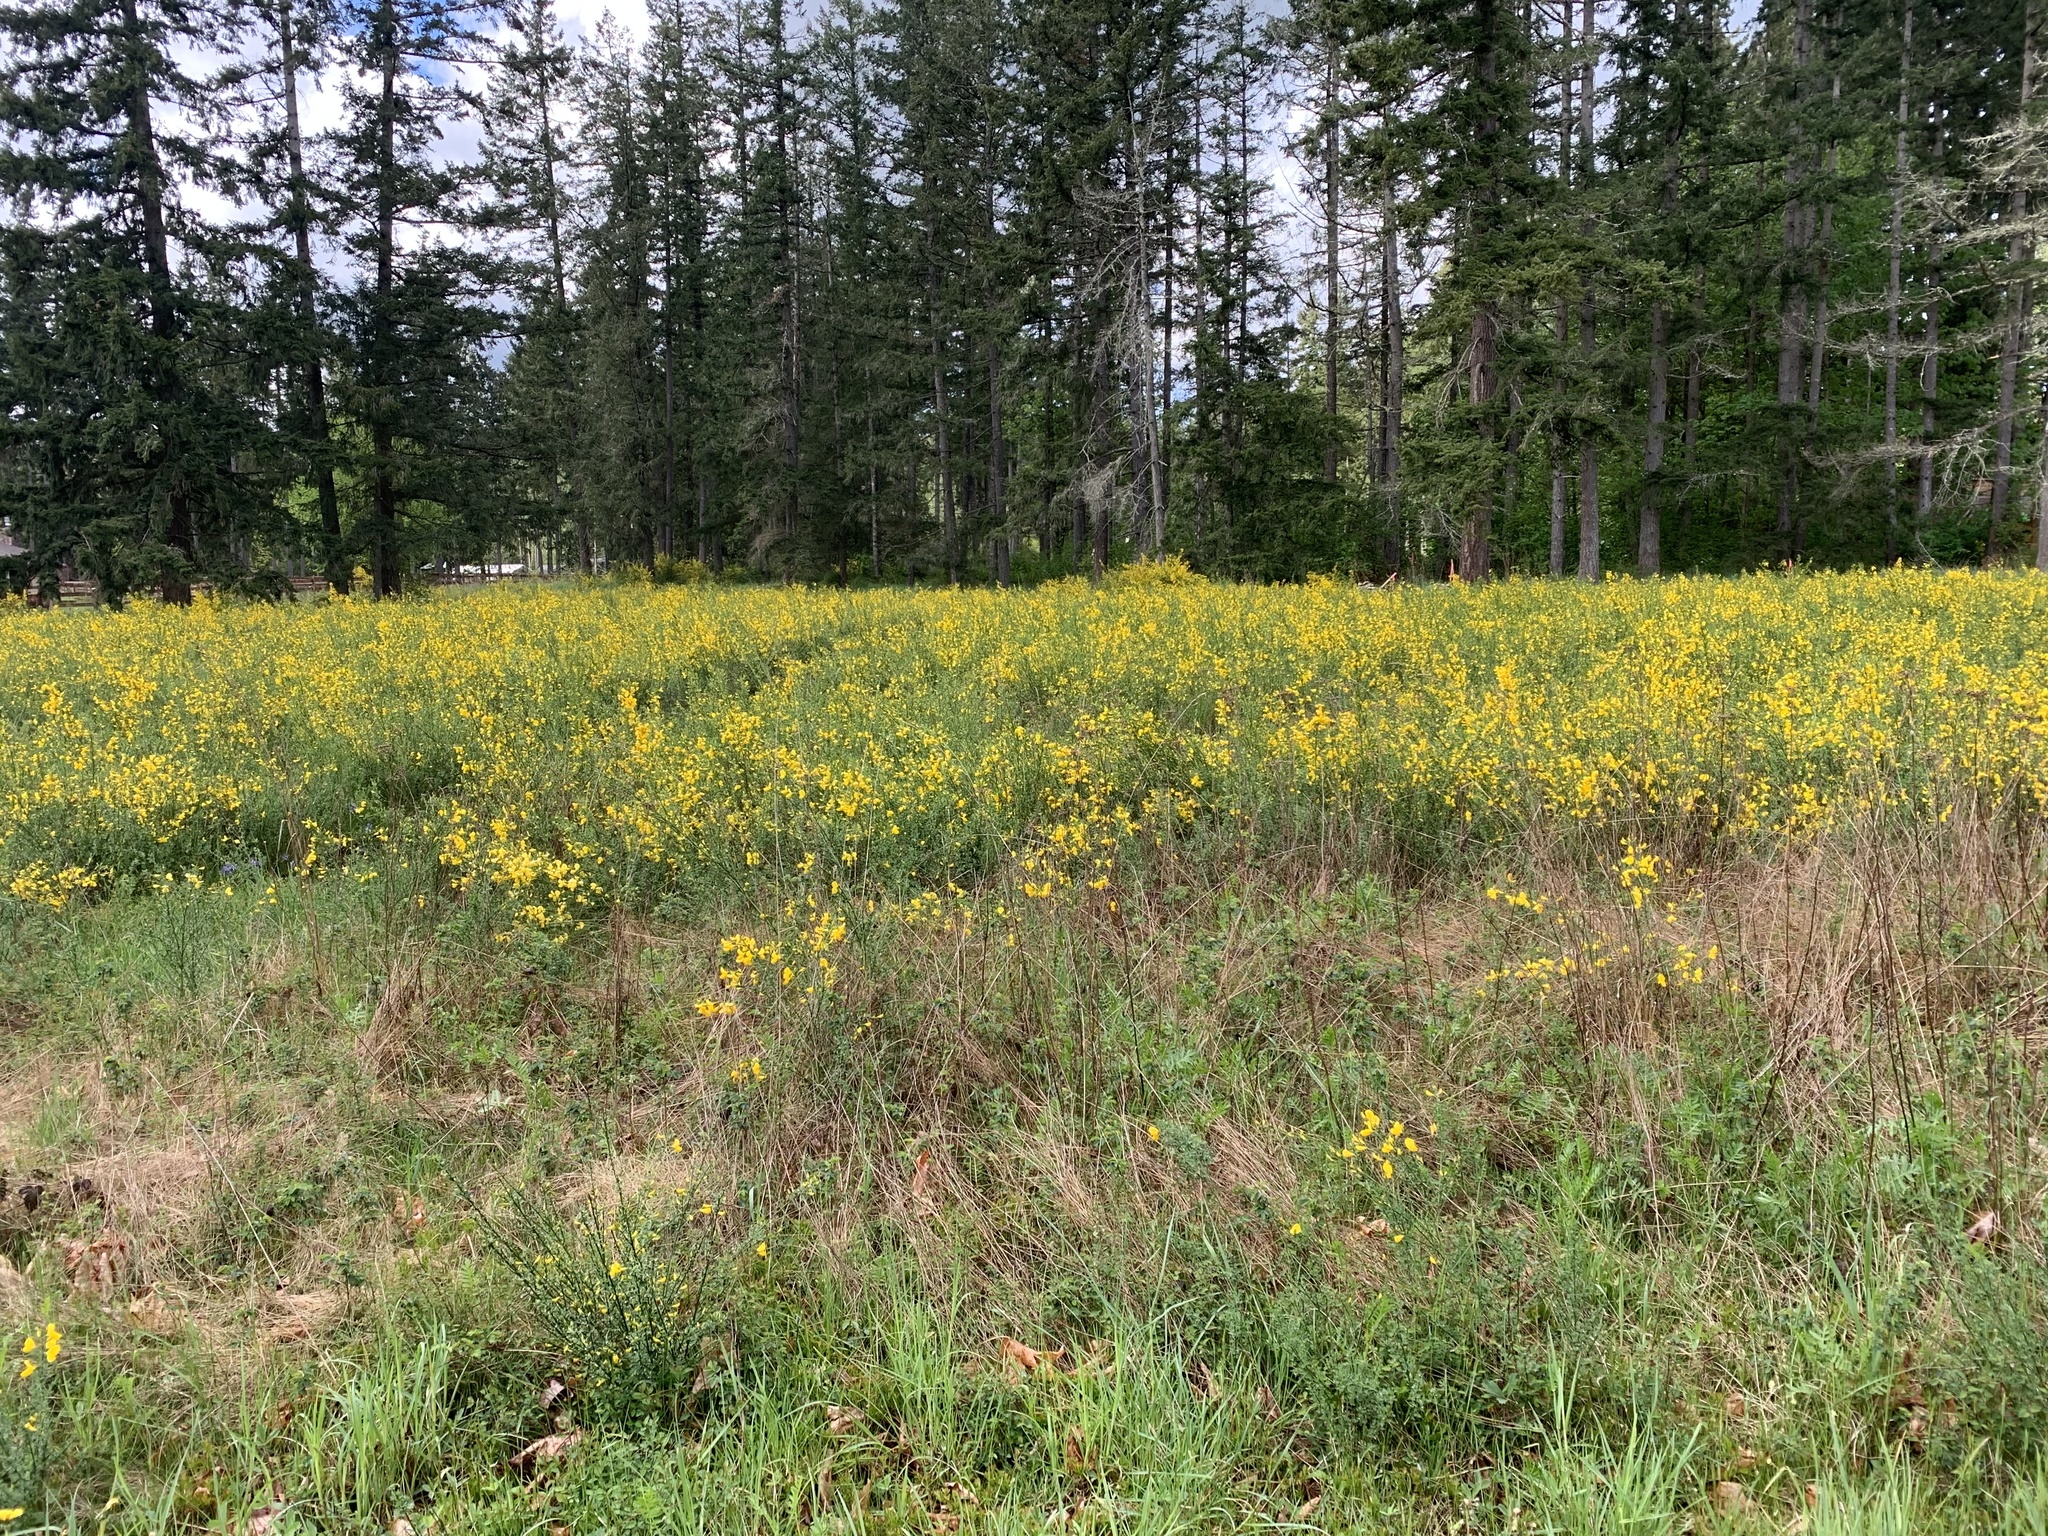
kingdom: Plantae
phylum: Tracheophyta
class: Magnoliopsida
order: Fabales
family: Fabaceae
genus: Cytisus
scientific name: Cytisus scoparius
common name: Scotch broom
